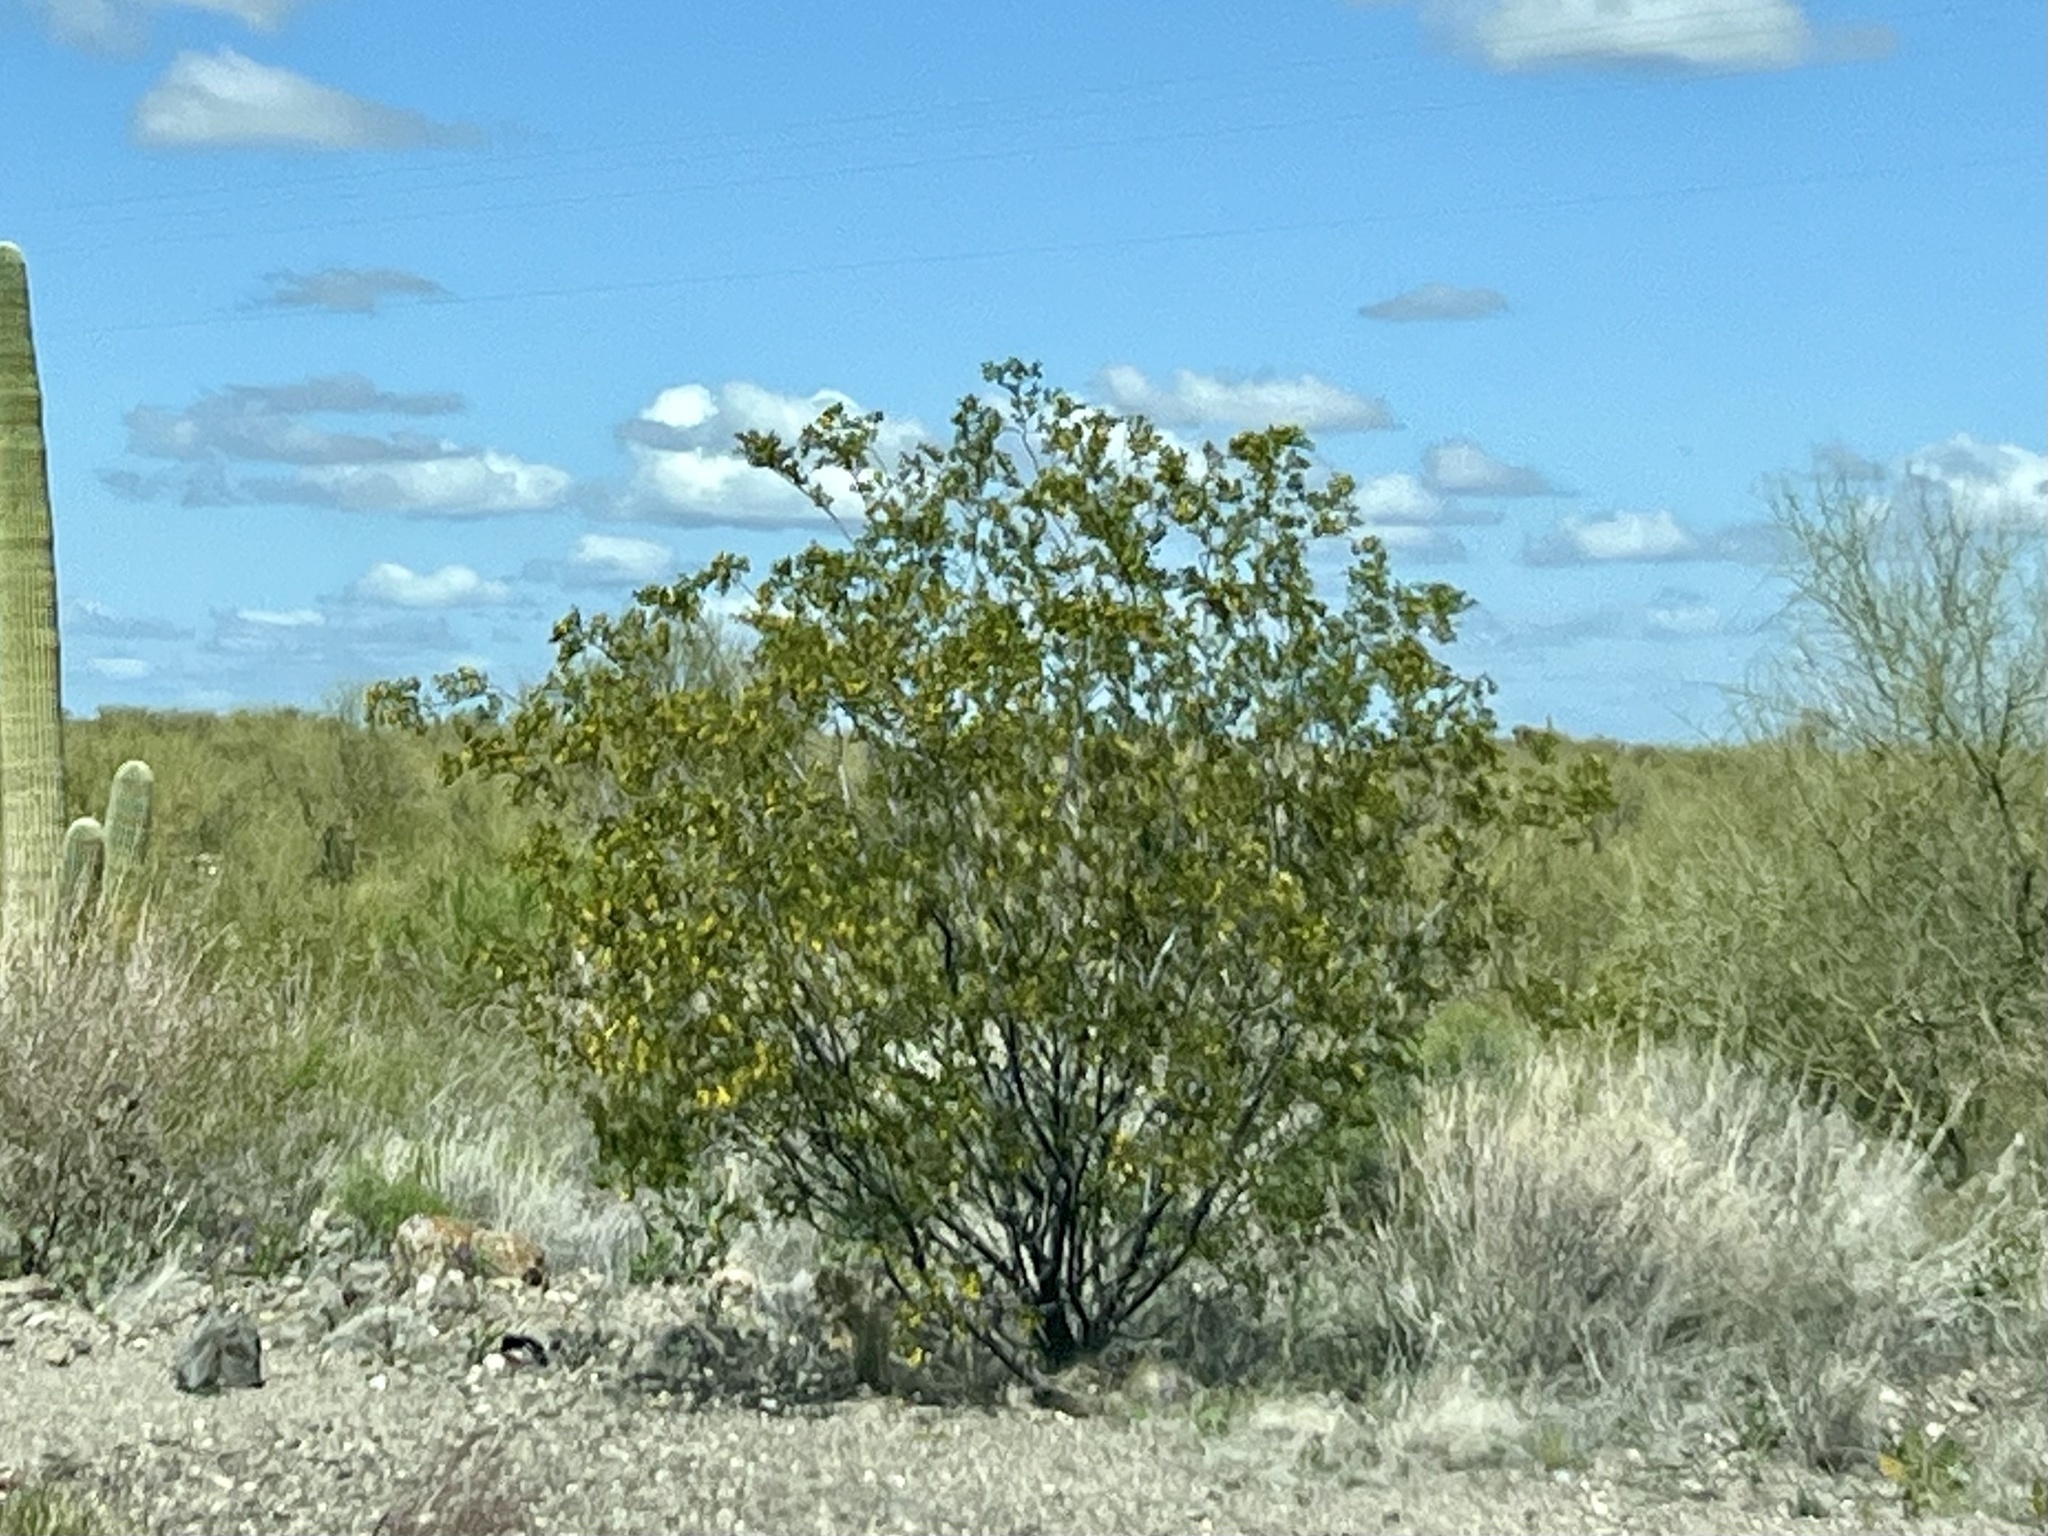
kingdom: Plantae
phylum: Tracheophyta
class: Magnoliopsida
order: Zygophyllales
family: Zygophyllaceae
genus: Larrea
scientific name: Larrea tridentata
